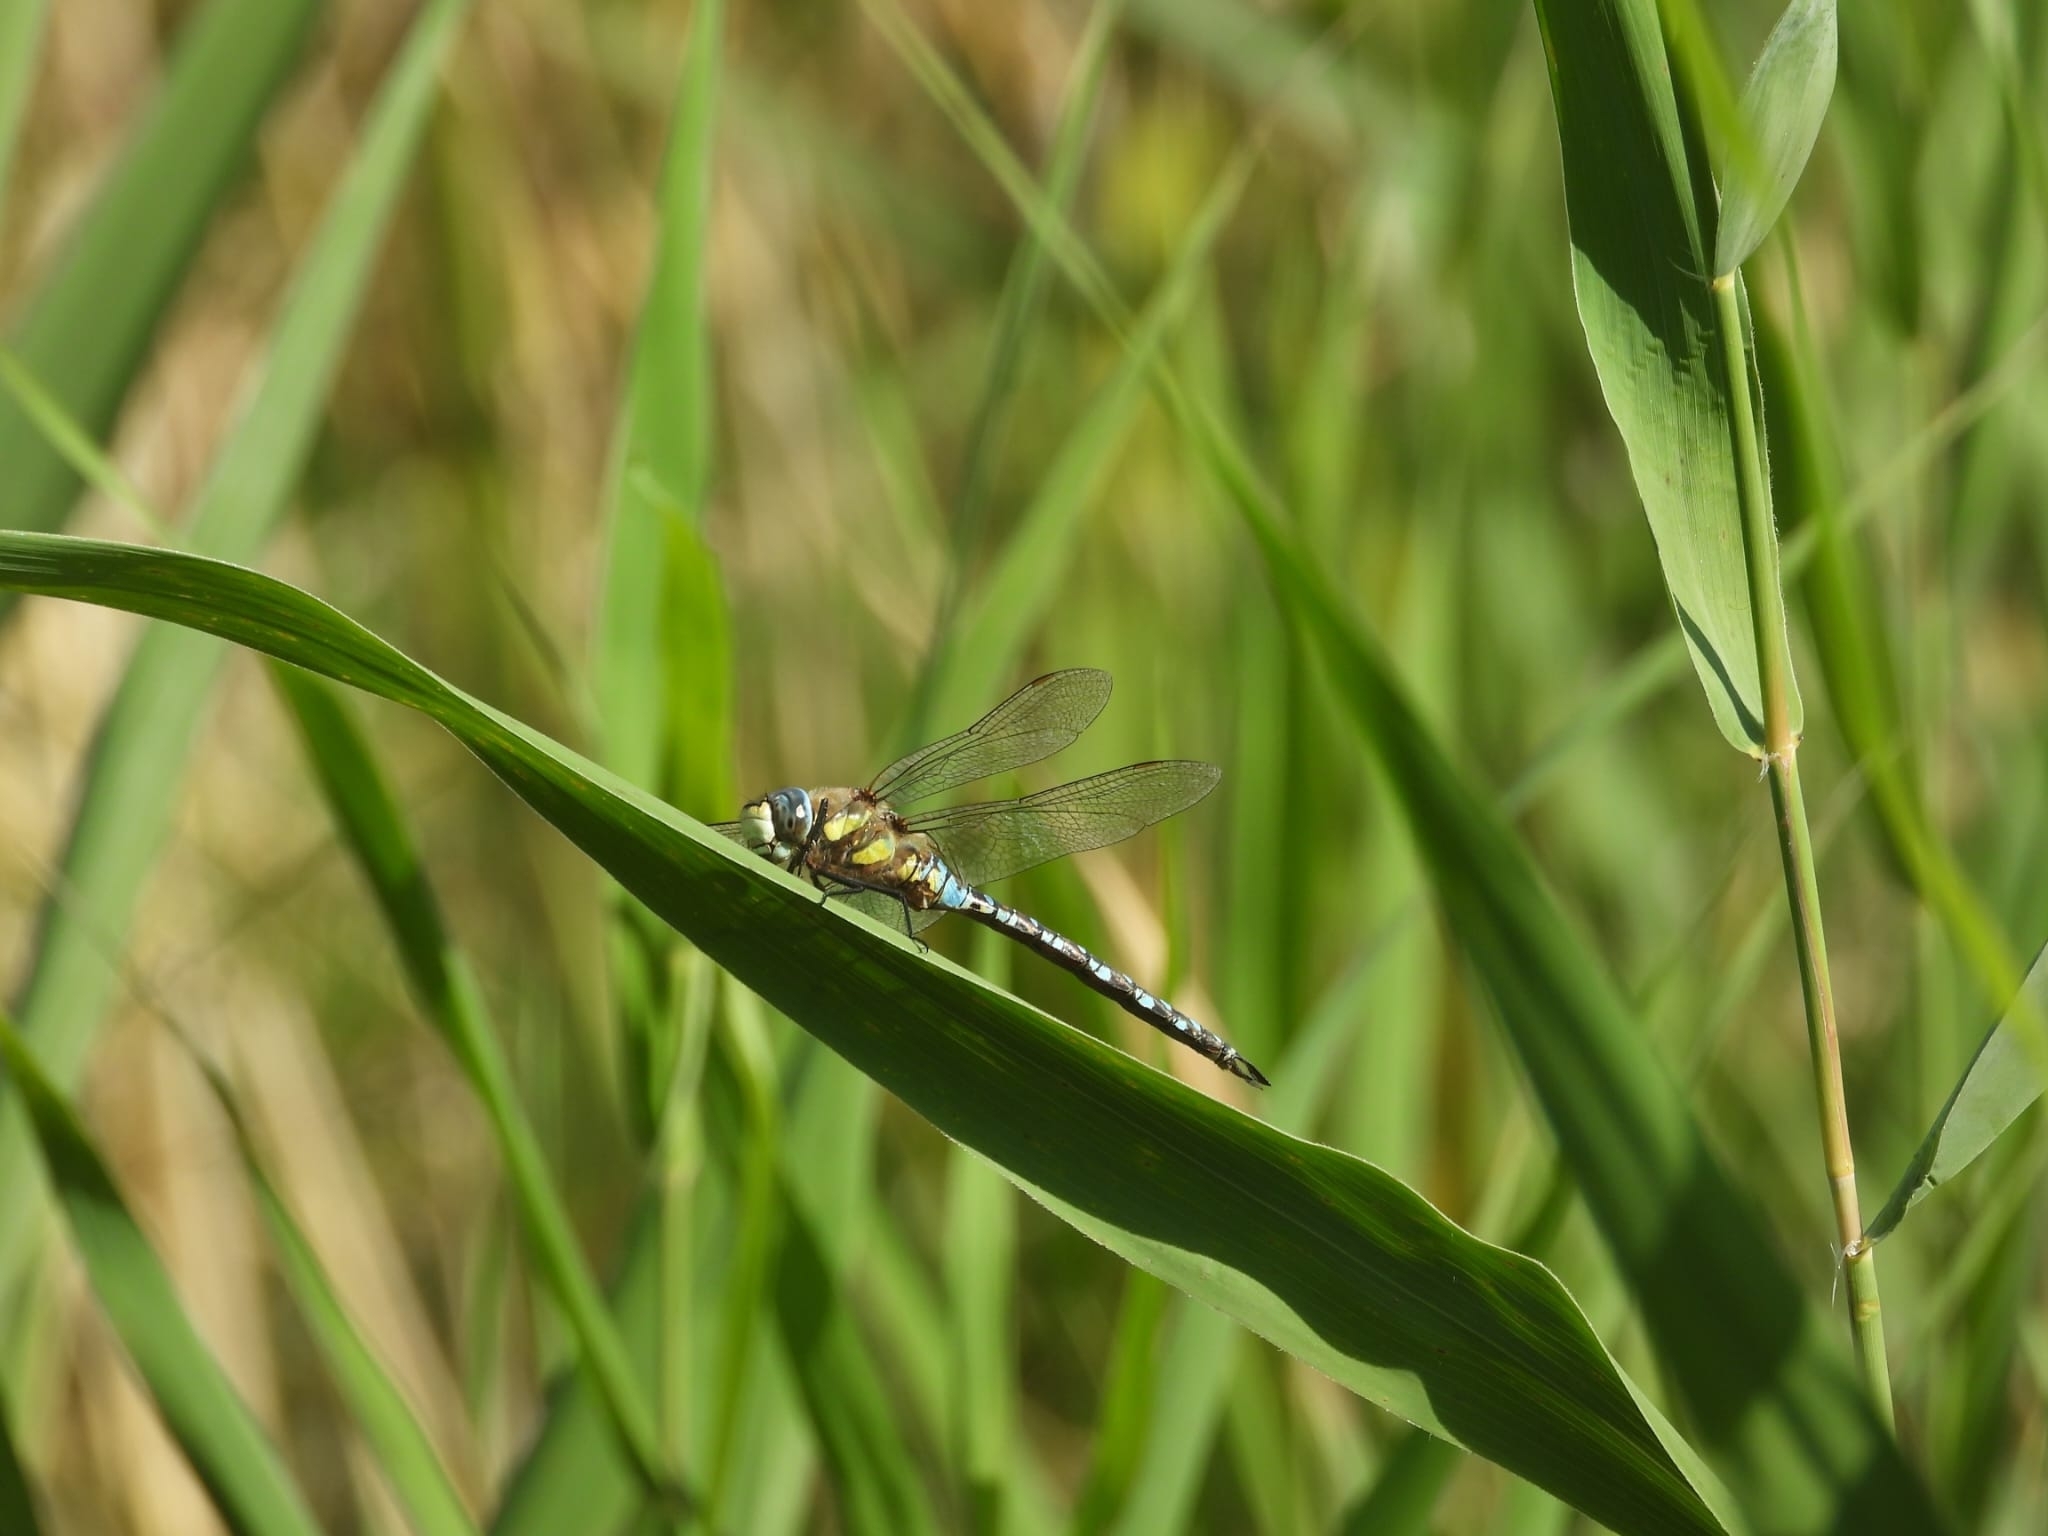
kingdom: Animalia
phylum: Arthropoda
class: Insecta
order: Odonata
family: Aeshnidae
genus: Aeshna
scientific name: Aeshna mixta
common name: Migrant hawker
